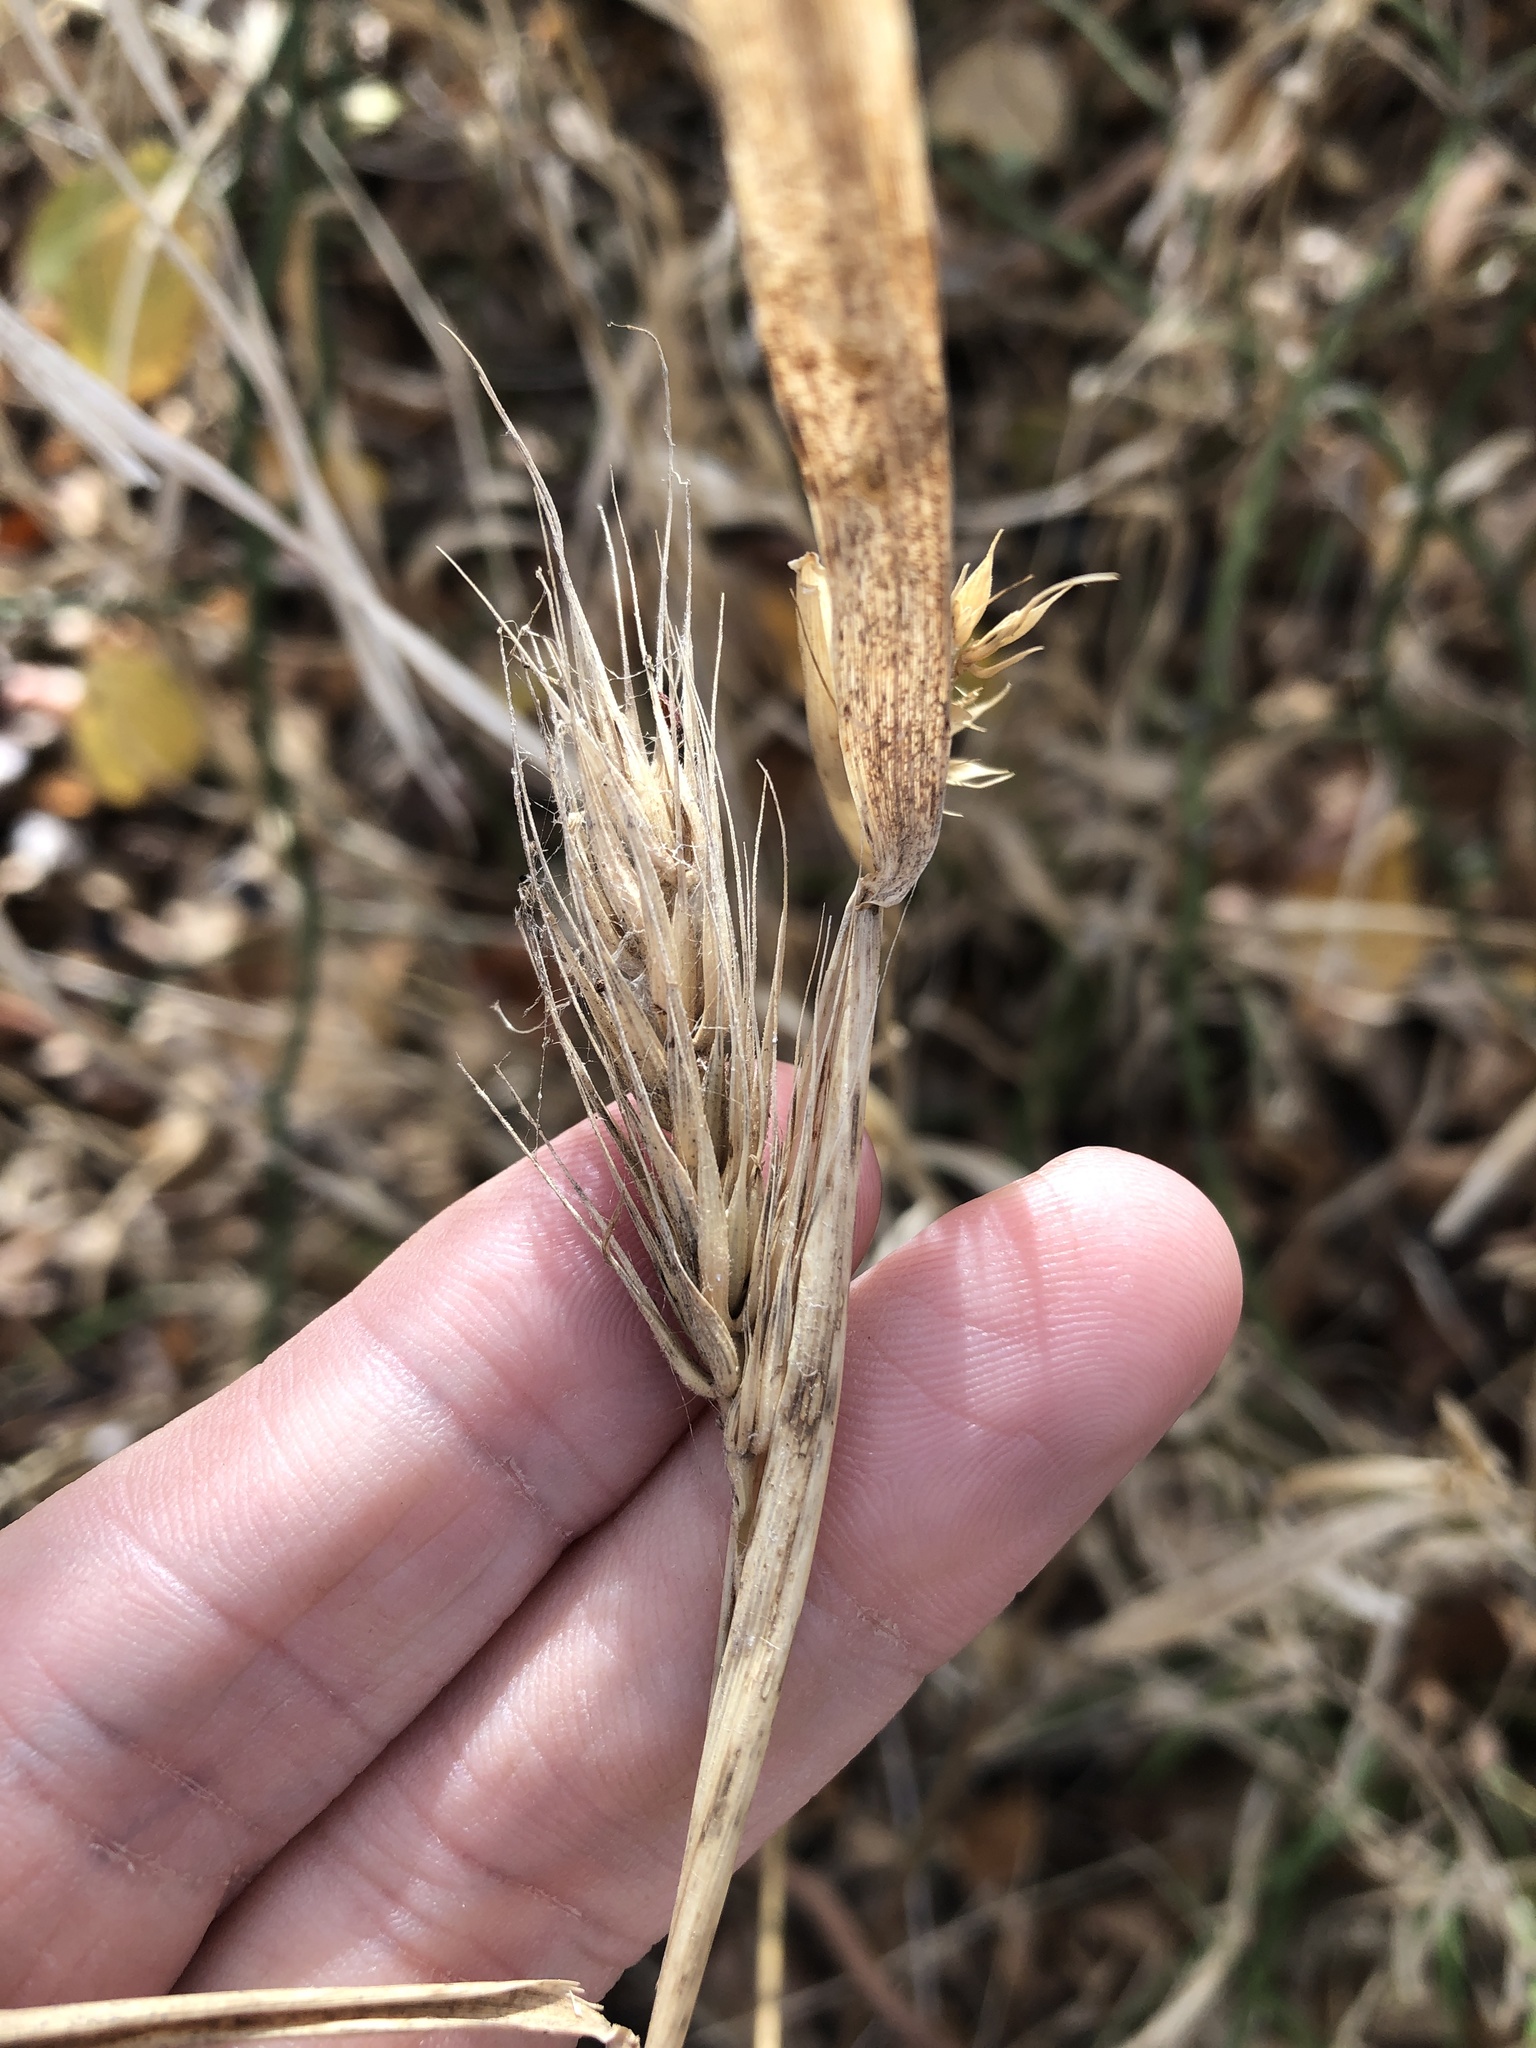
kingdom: Plantae
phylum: Tracheophyta
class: Liliopsida
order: Poales
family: Poaceae
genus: Elymus
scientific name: Elymus virginicus
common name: Common eastern wildrye
